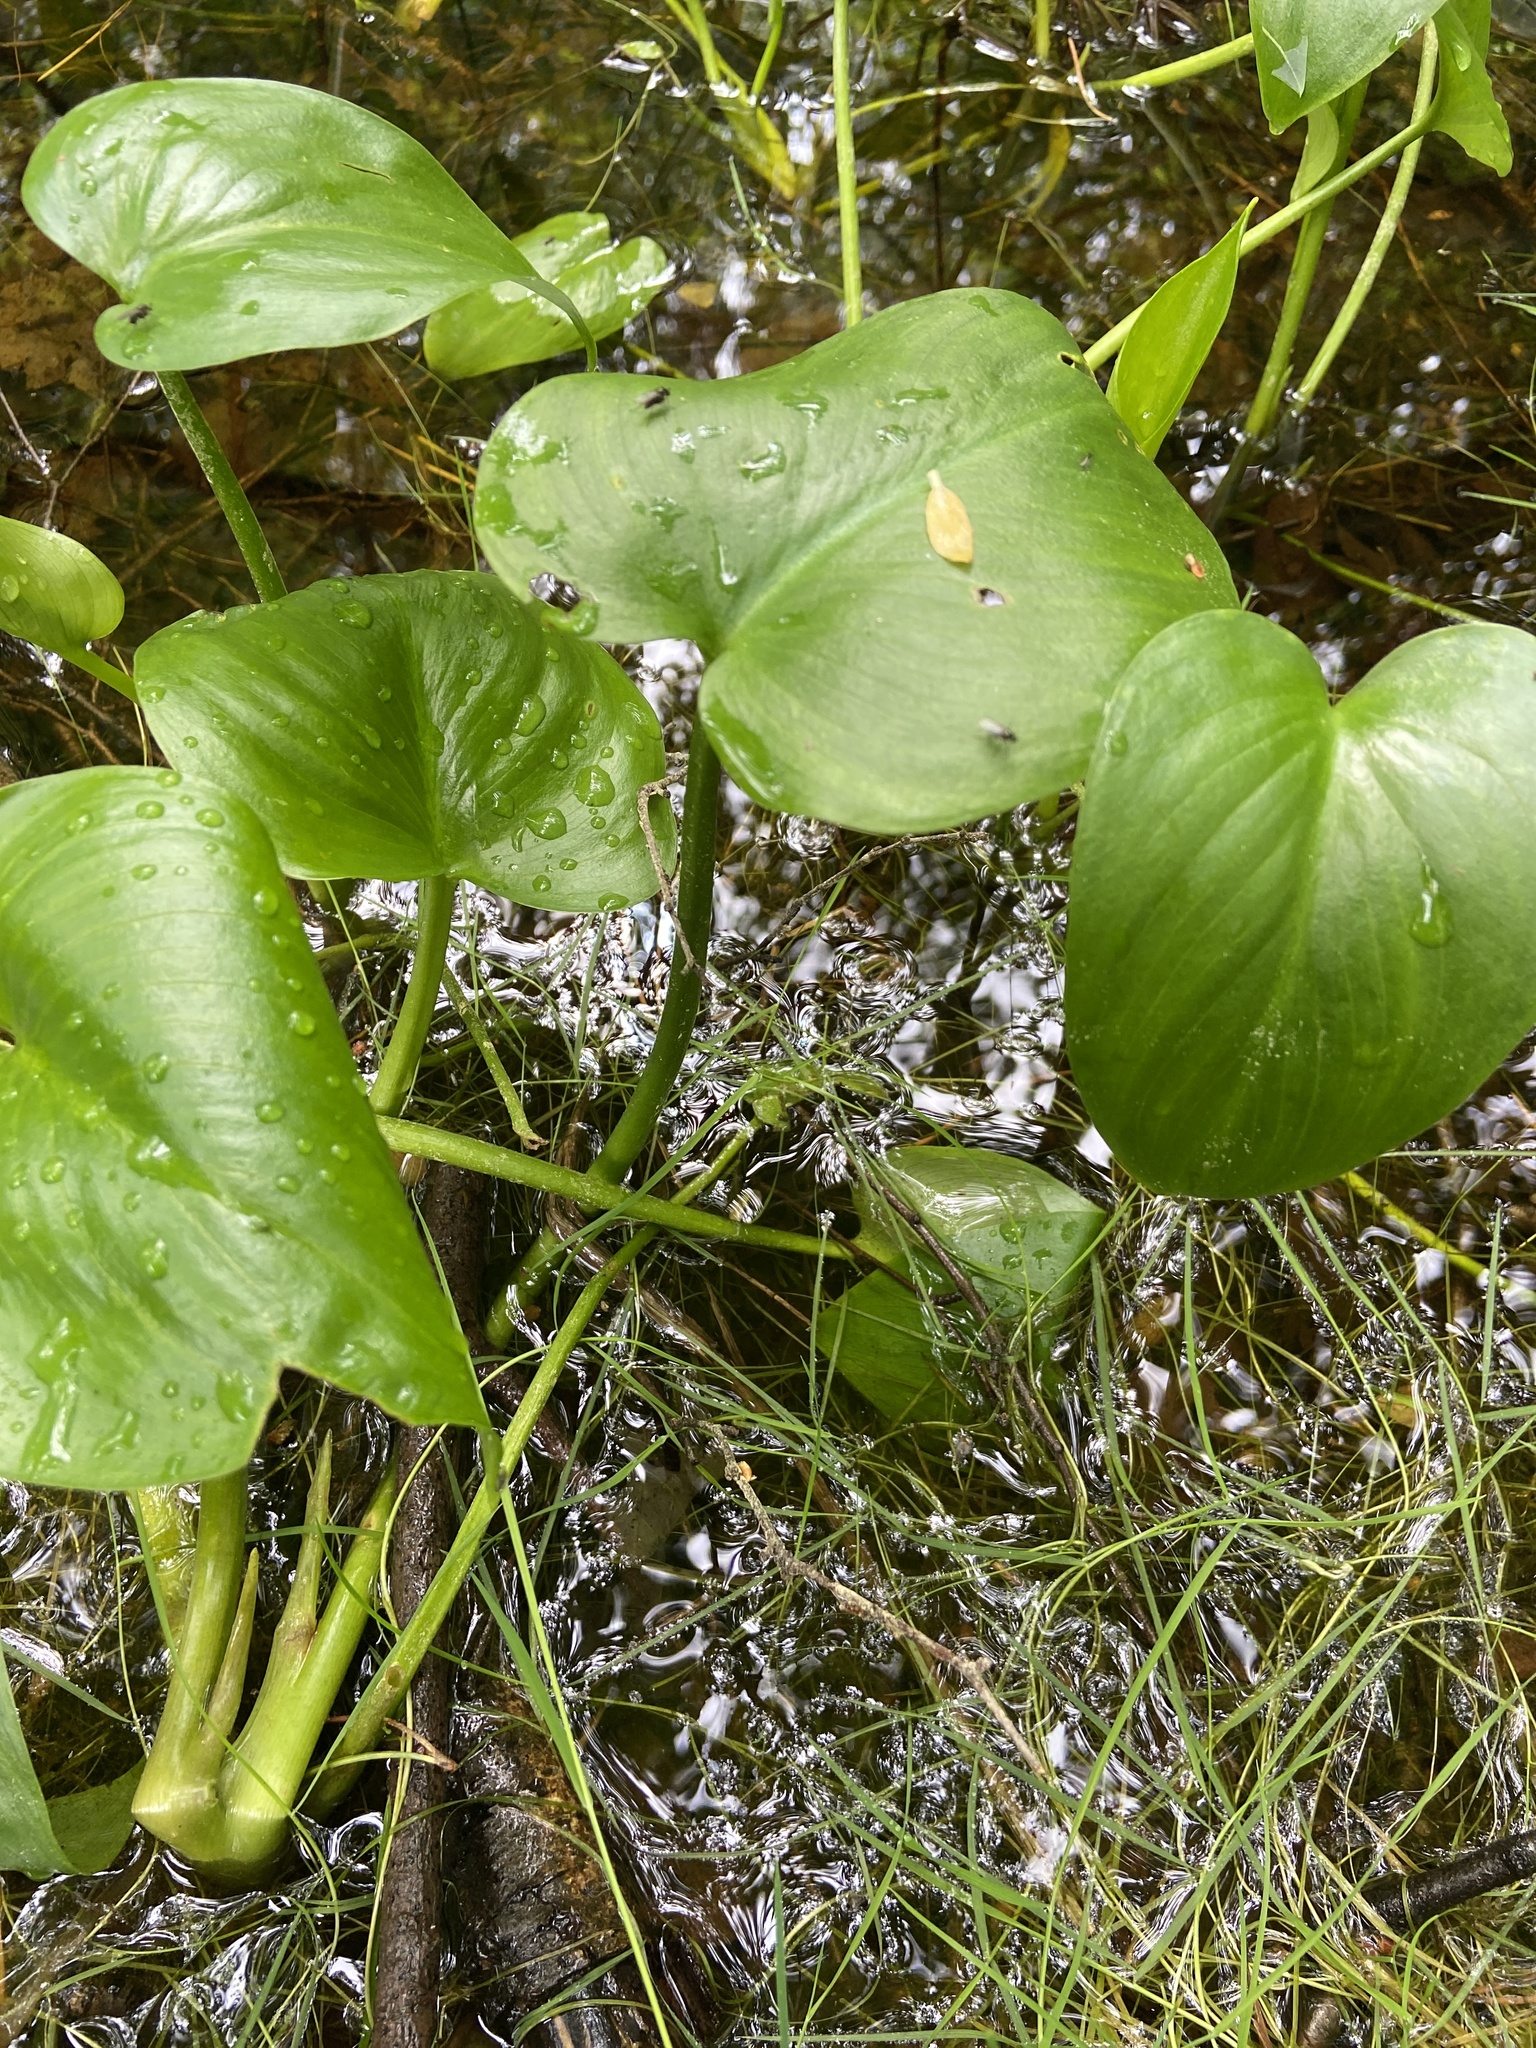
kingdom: Plantae
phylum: Tracheophyta
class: Liliopsida
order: Alismatales
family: Araceae
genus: Calla
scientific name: Calla palustris
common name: Bog arum
